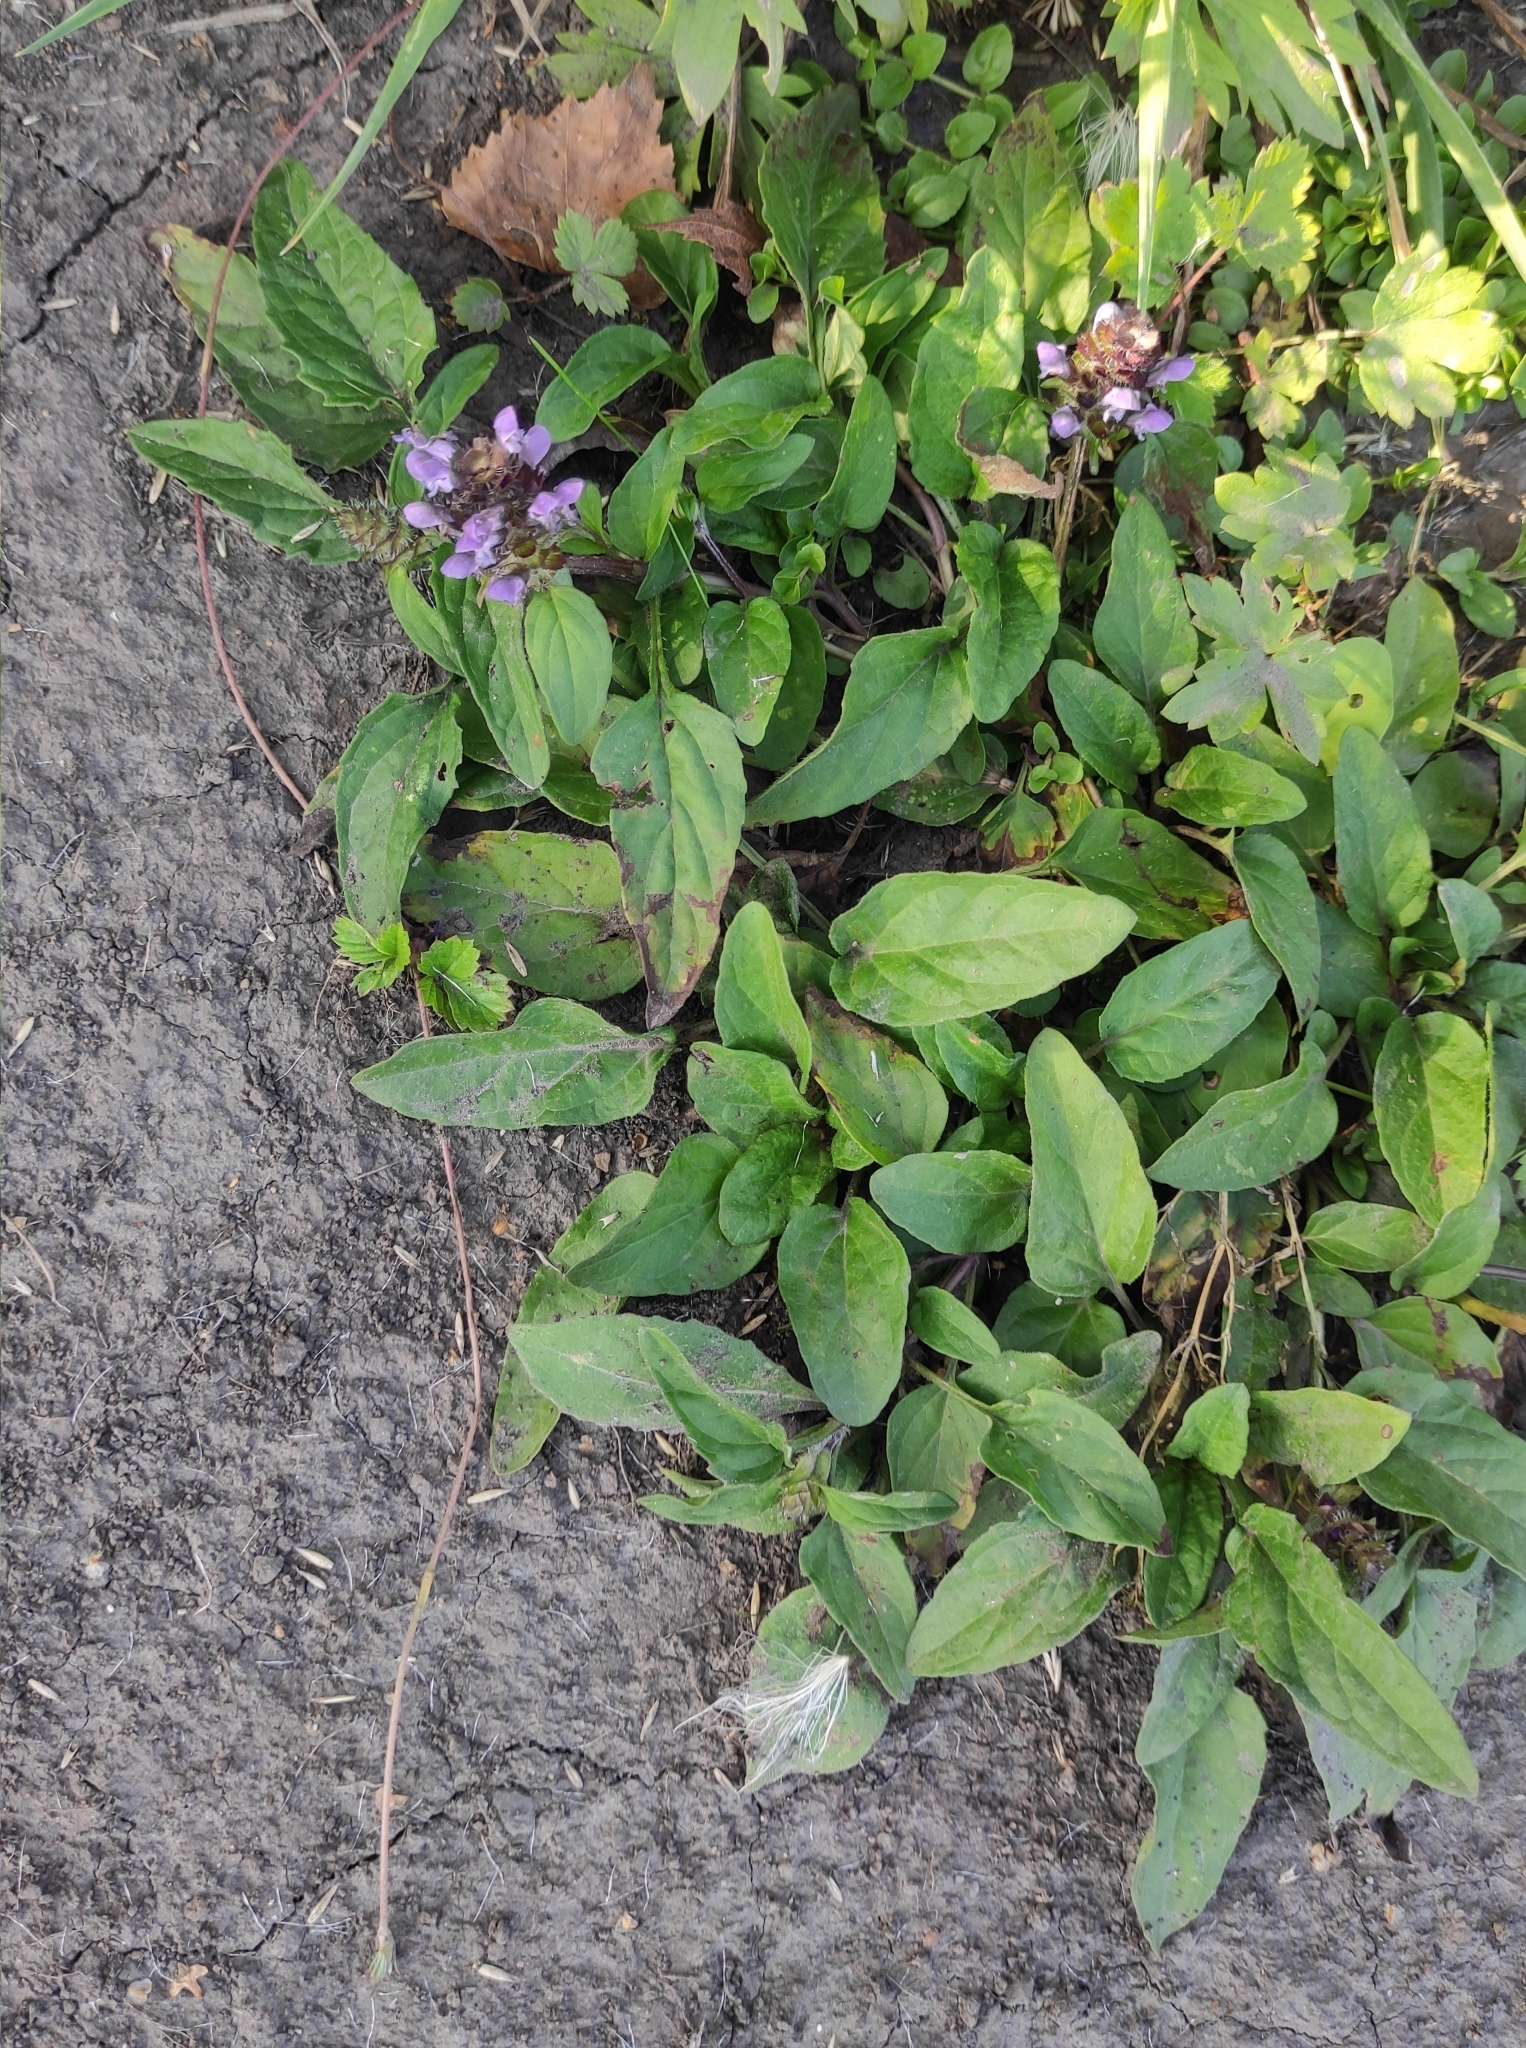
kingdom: Plantae
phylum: Tracheophyta
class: Magnoliopsida
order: Lamiales
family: Lamiaceae
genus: Prunella
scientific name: Prunella vulgaris
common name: Heal-all
